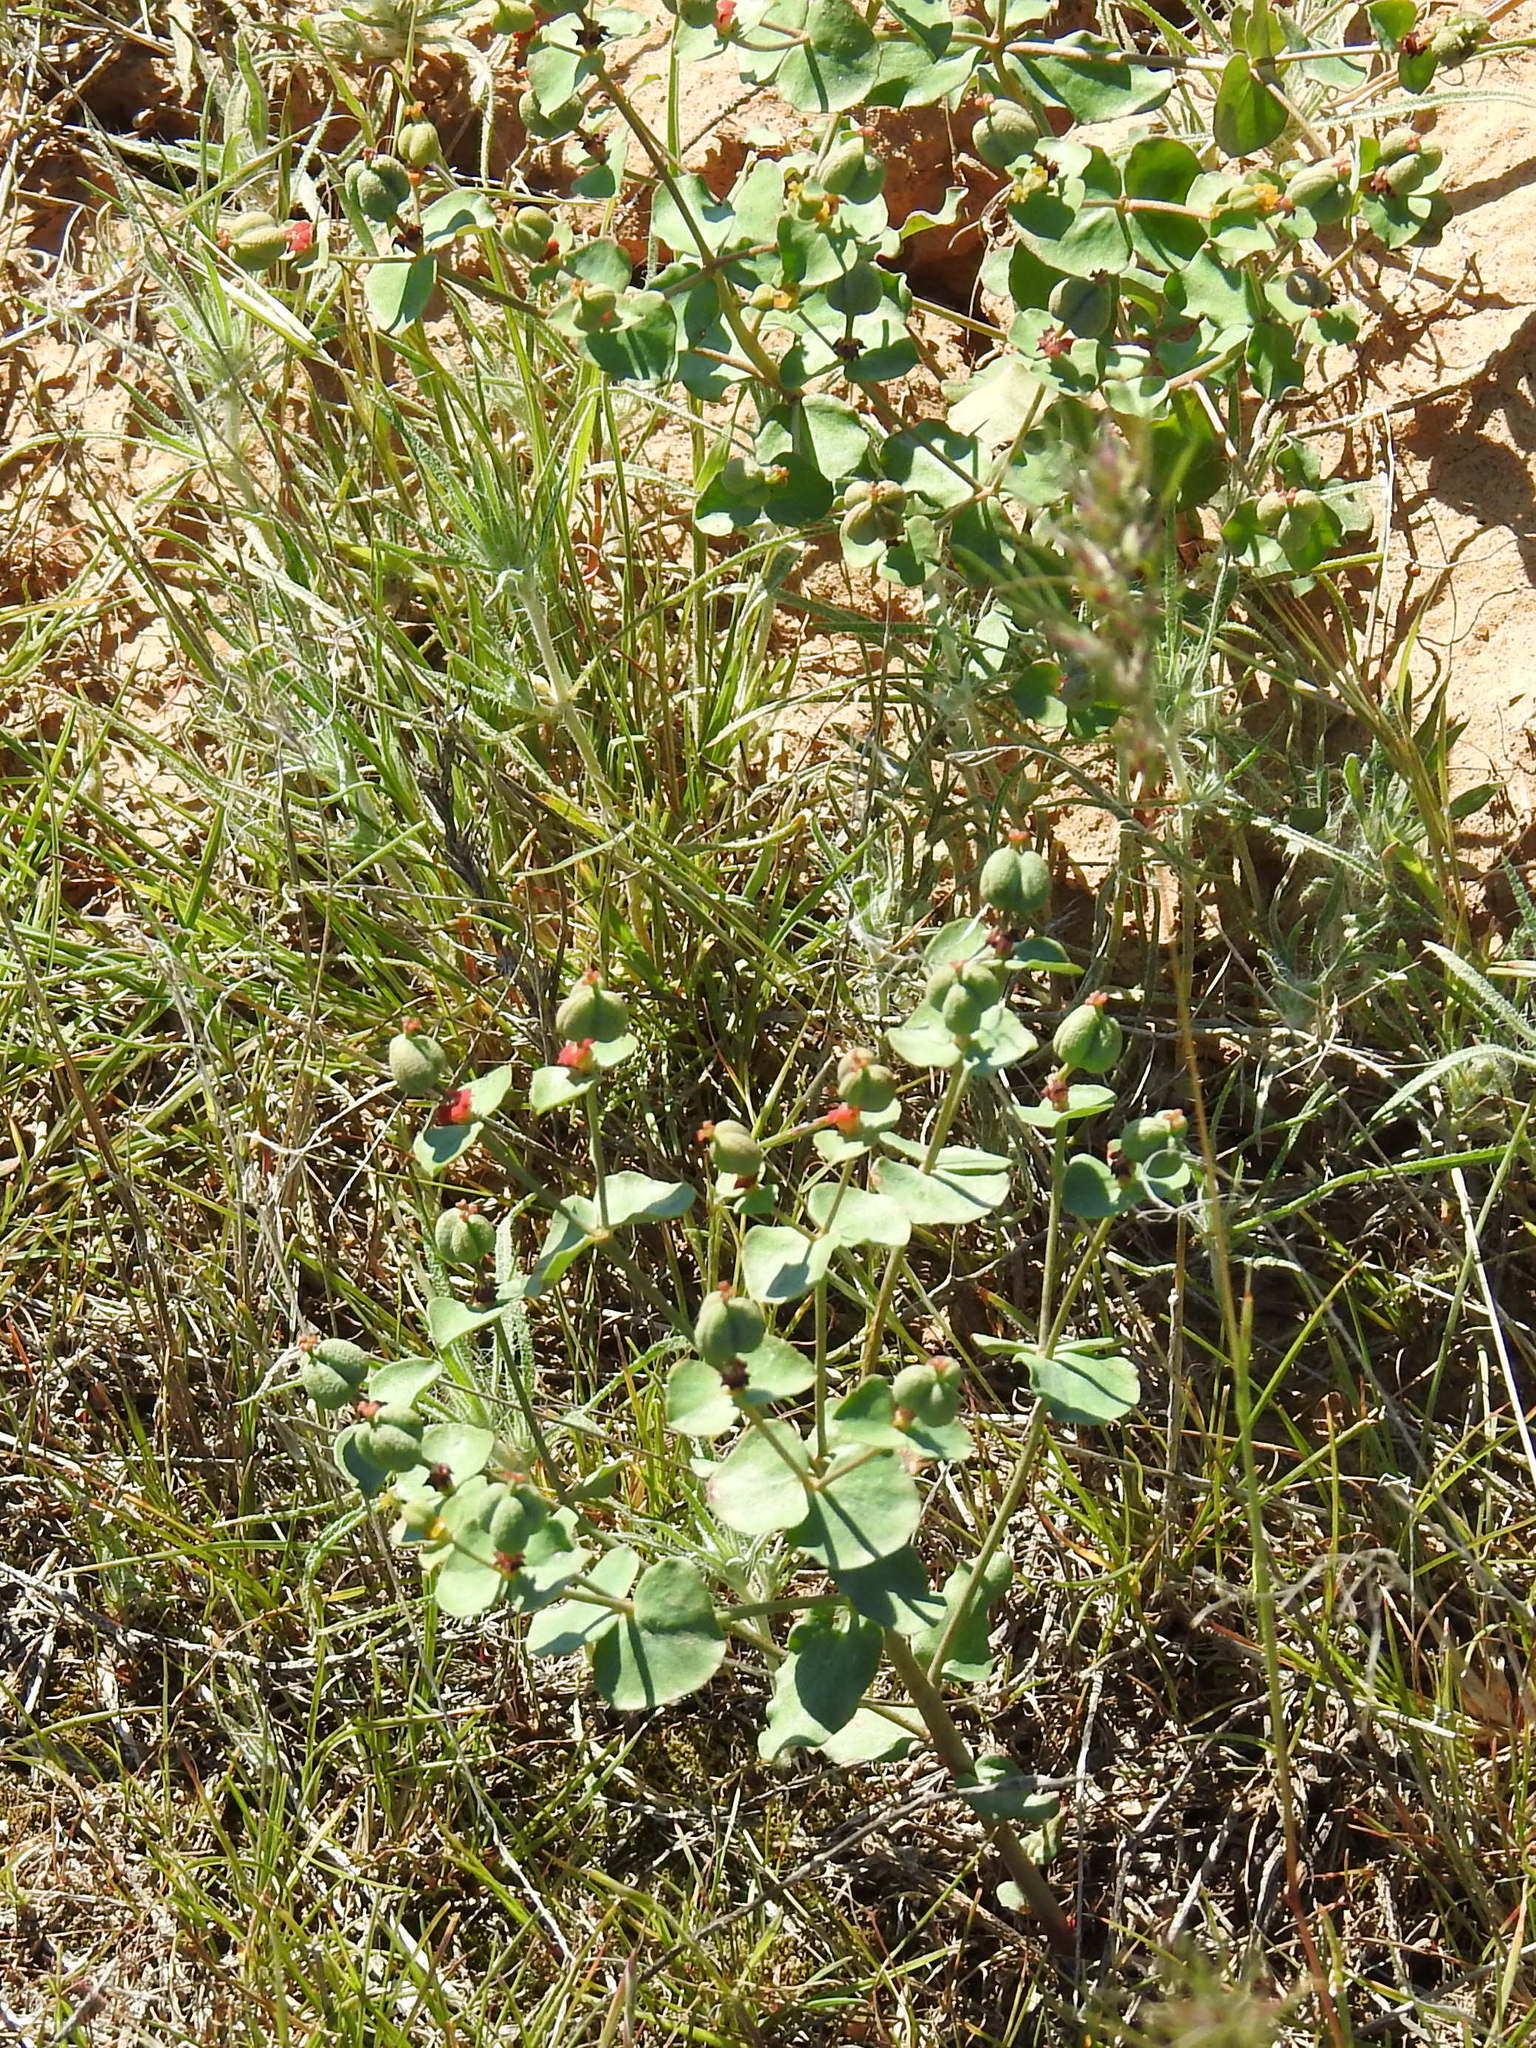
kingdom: Plantae
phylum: Tracheophyta
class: Magnoliopsida
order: Malpighiales
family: Euphorbiaceae
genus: Euphorbia
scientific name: Euphorbia undulata
